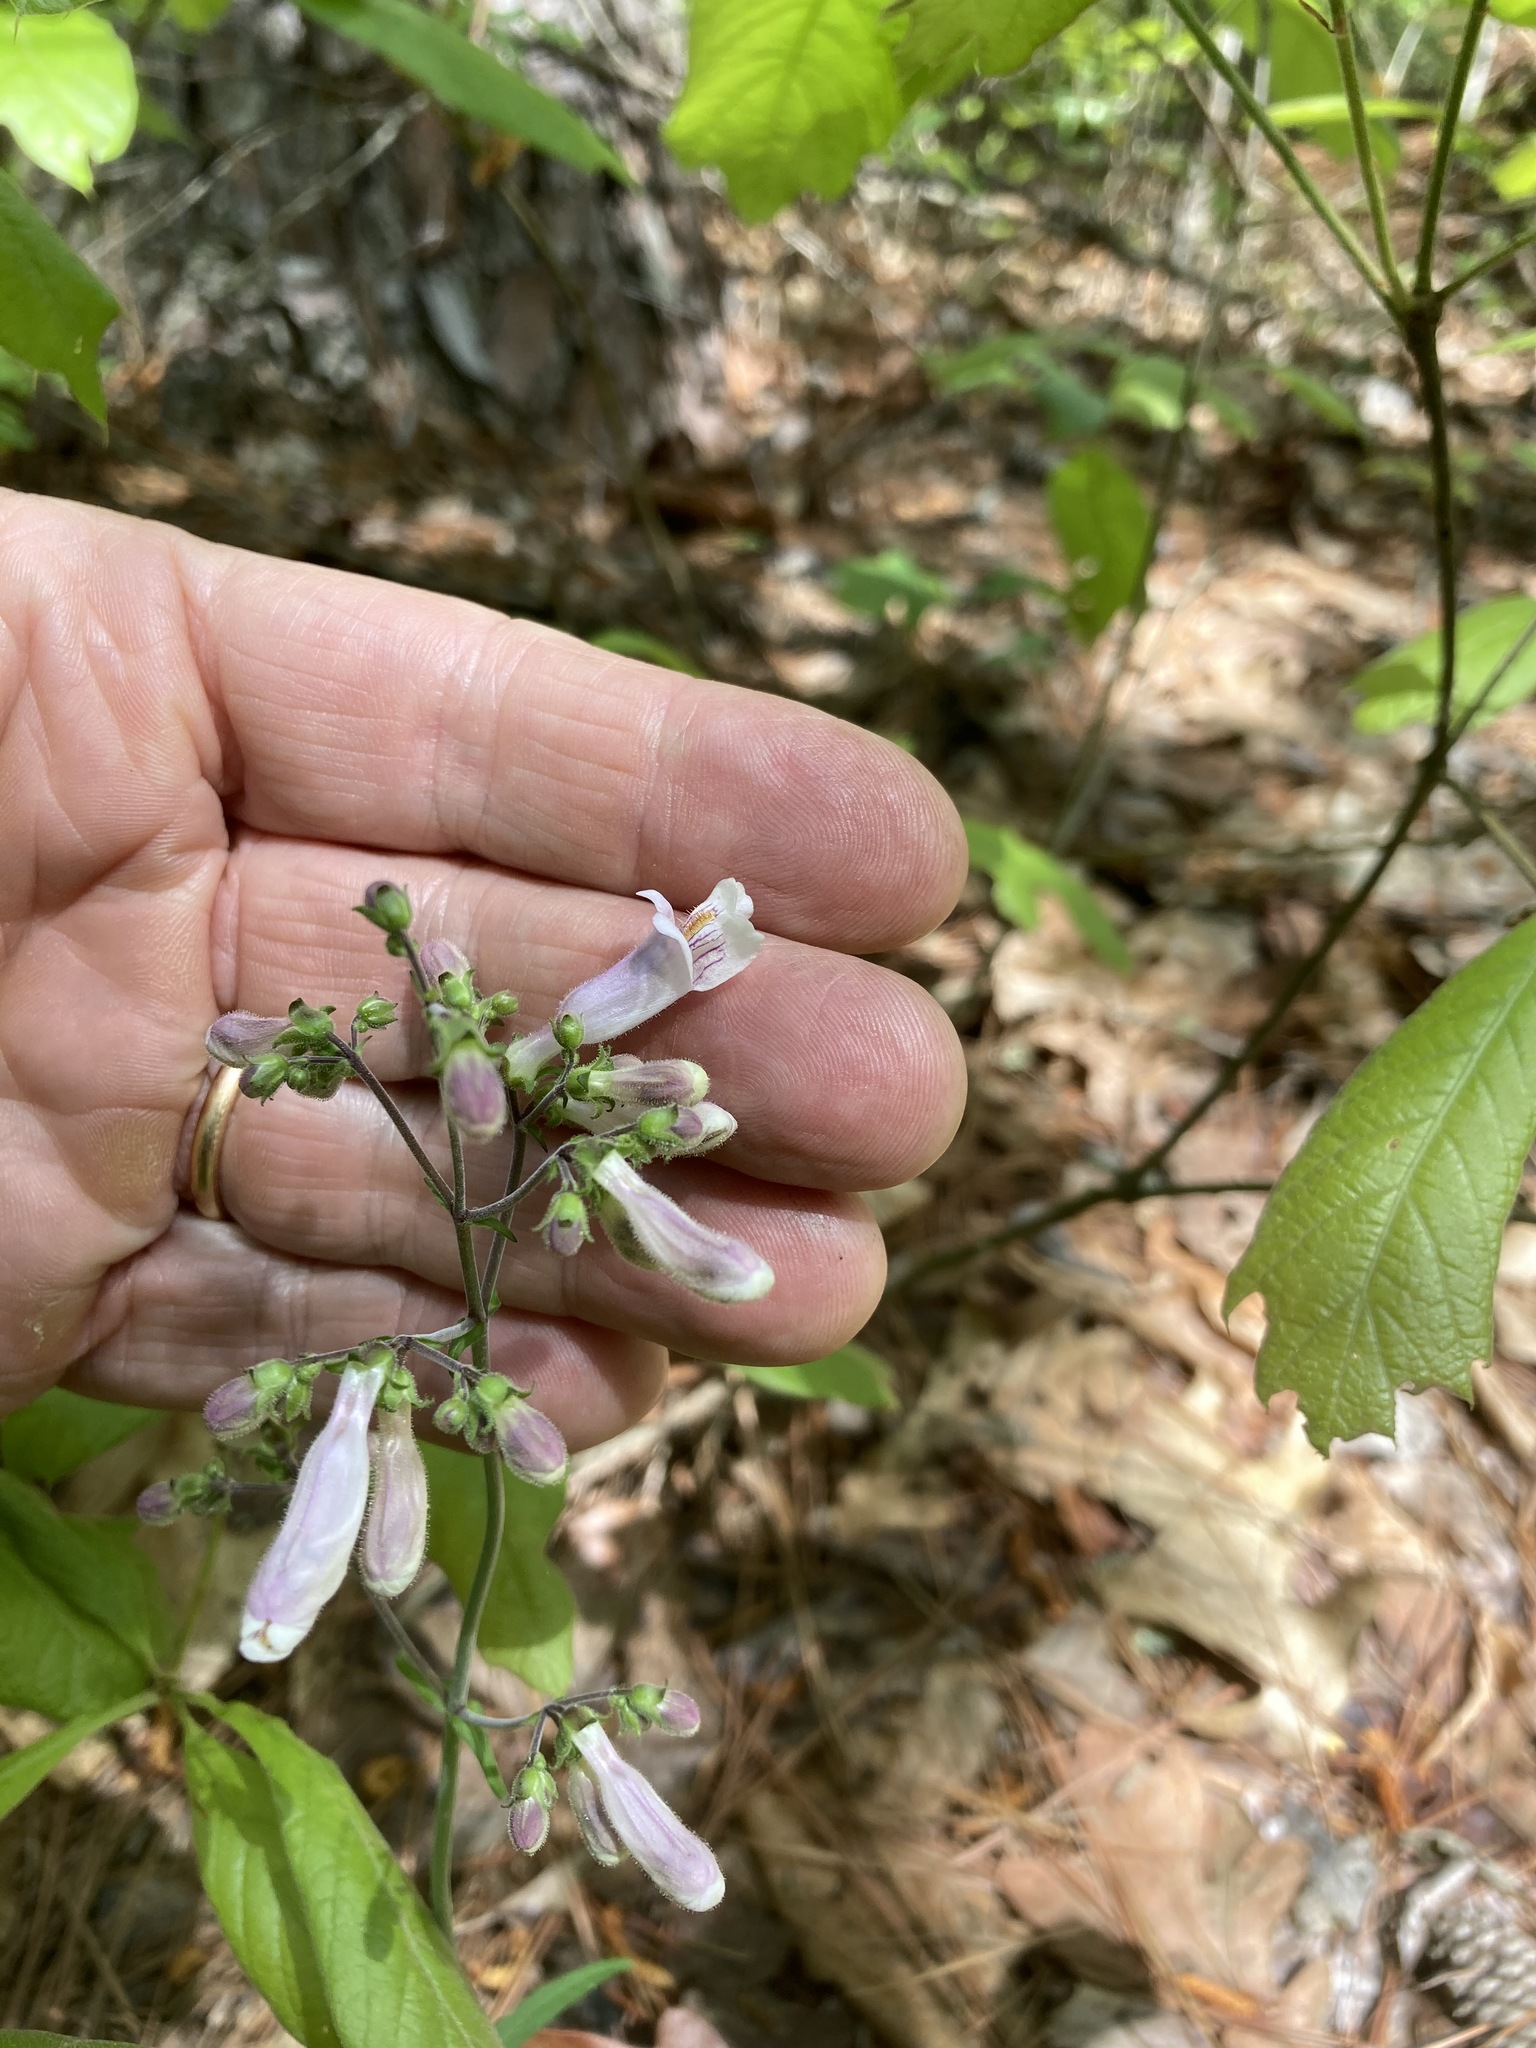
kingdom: Plantae
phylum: Tracheophyta
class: Magnoliopsida
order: Lamiales
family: Plantaginaceae
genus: Penstemon
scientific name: Penstemon laxiflorus
